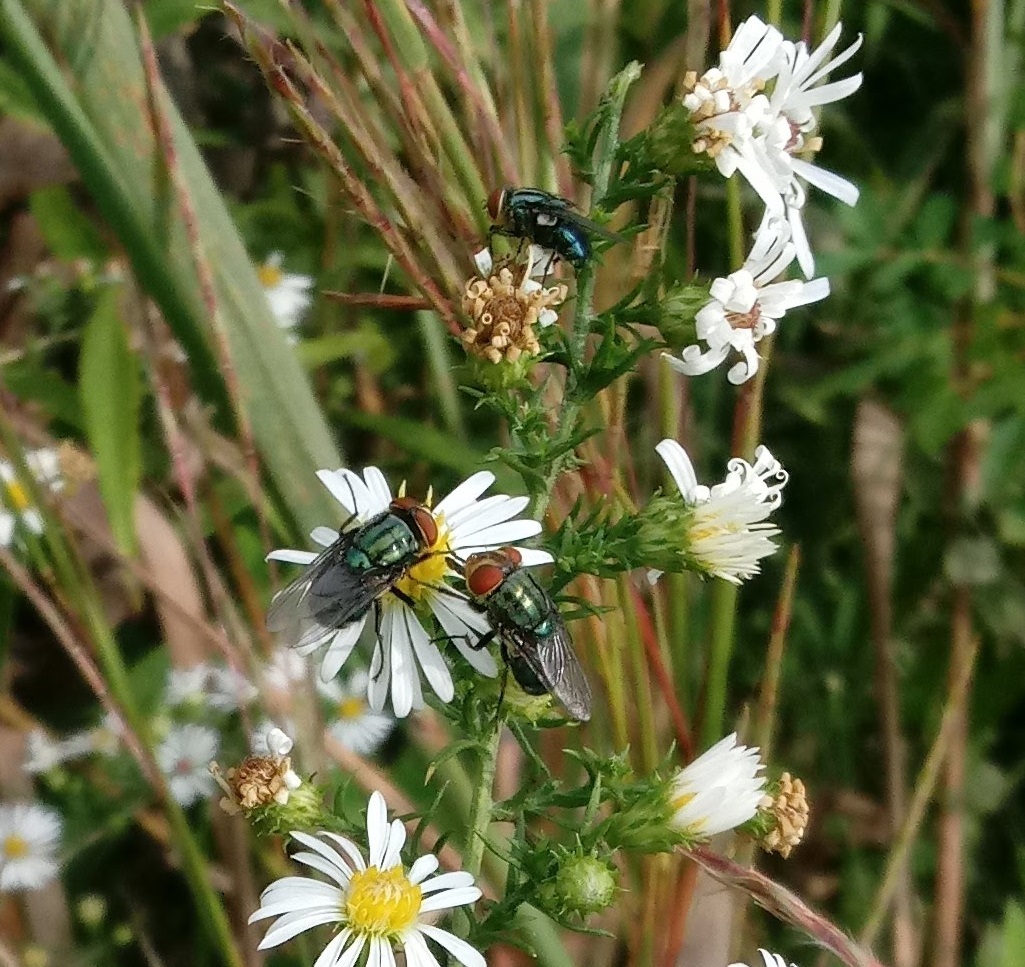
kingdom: Animalia
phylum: Arthropoda
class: Insecta
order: Diptera
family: Calliphoridae
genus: Cochliomyia
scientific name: Cochliomyia macellaria
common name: Secondary screwworm
